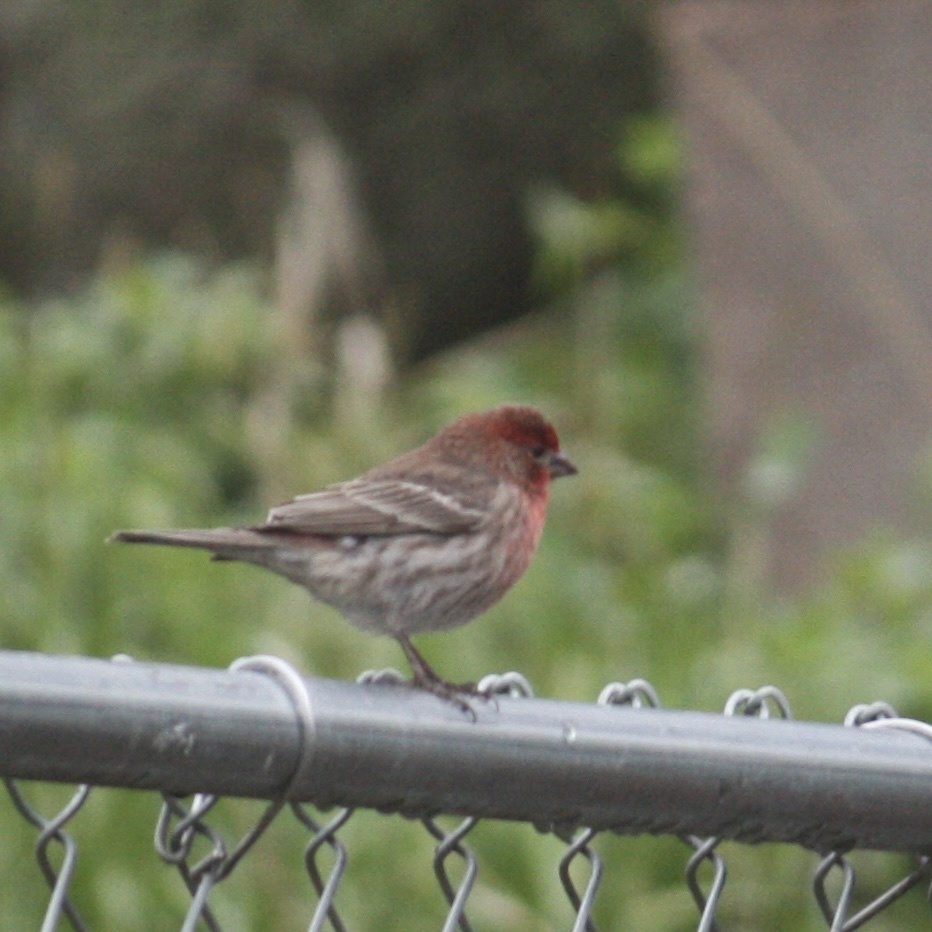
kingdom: Animalia
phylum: Chordata
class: Aves
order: Passeriformes
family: Fringillidae
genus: Haemorhous
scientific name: Haemorhous mexicanus
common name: House finch
